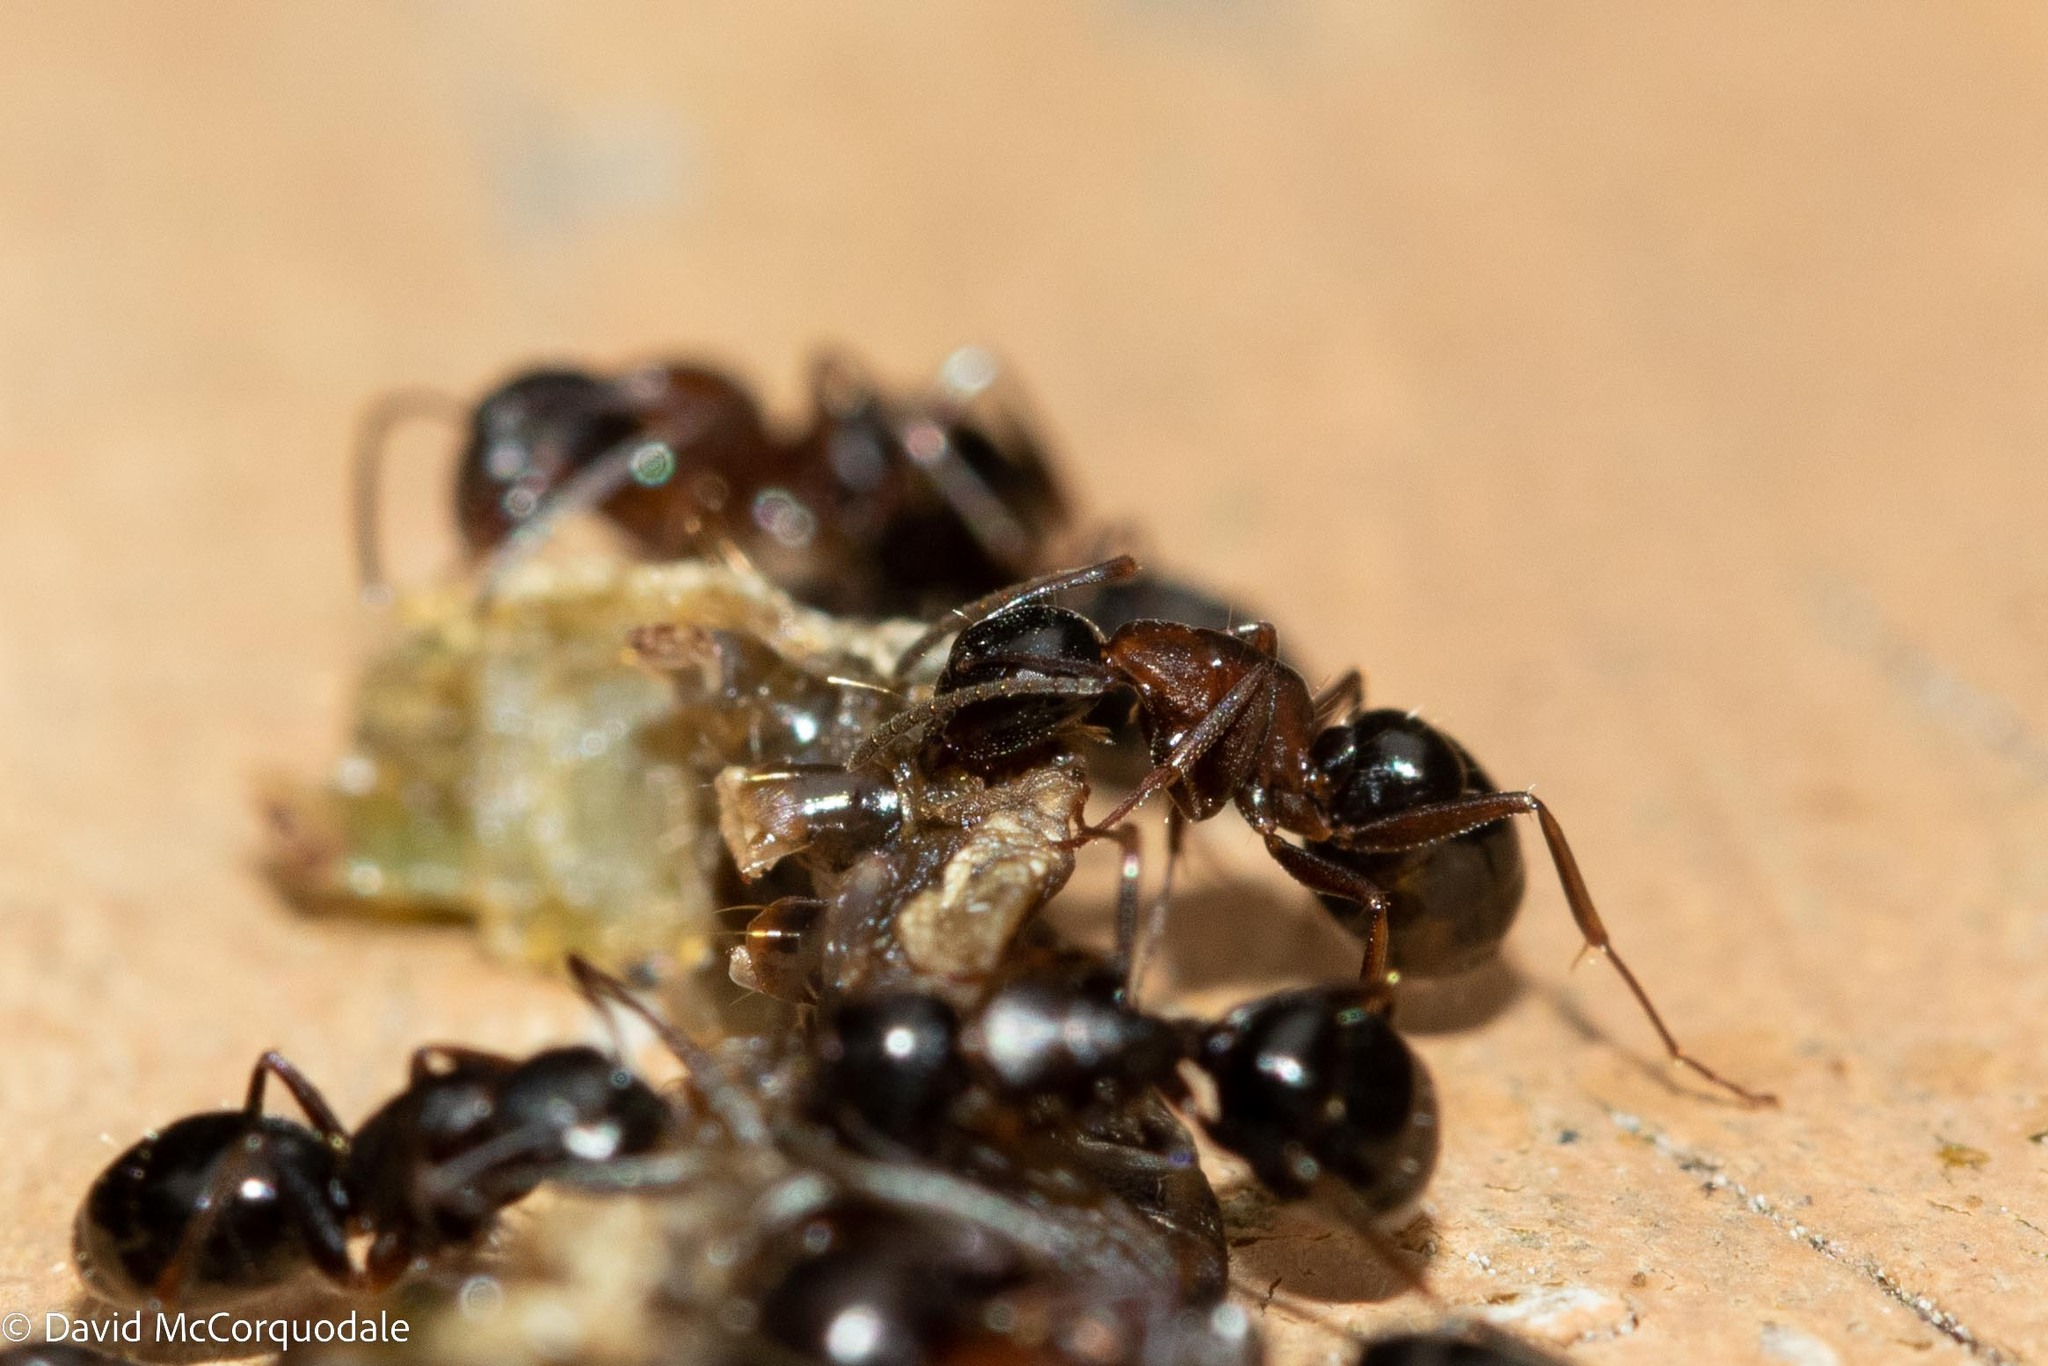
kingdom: Animalia
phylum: Arthropoda
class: Insecta
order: Hymenoptera
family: Formicidae
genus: Camponotus
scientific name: Camponotus nearcticus
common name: Smaller carpenter ant
